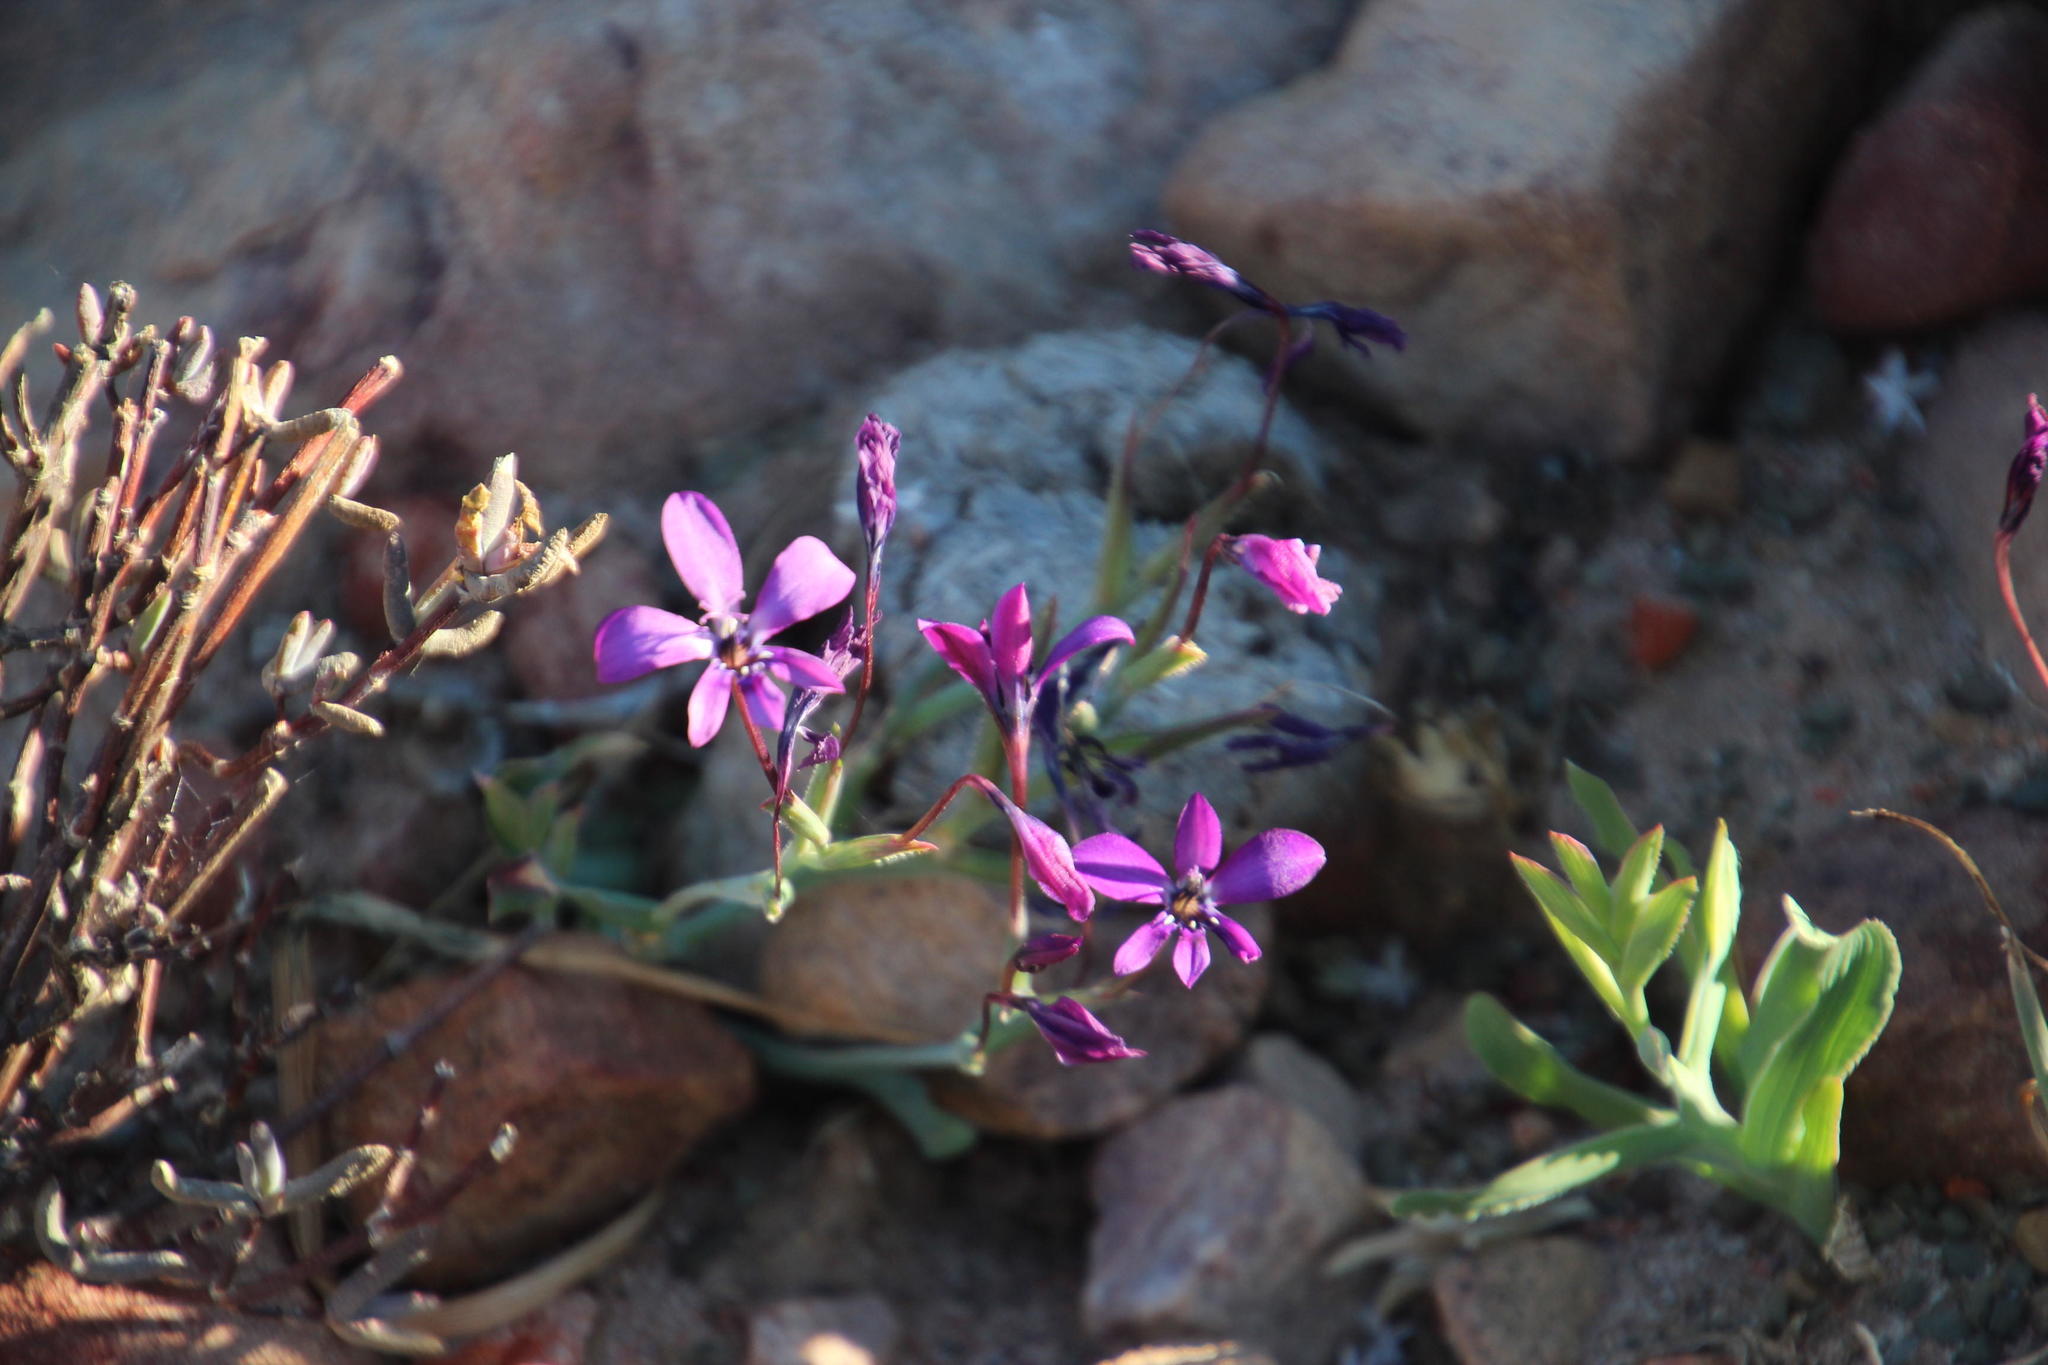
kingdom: Plantae
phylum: Tracheophyta
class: Liliopsida
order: Asparagales
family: Iridaceae
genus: Lapeirousia
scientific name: Lapeirousia fabricii
